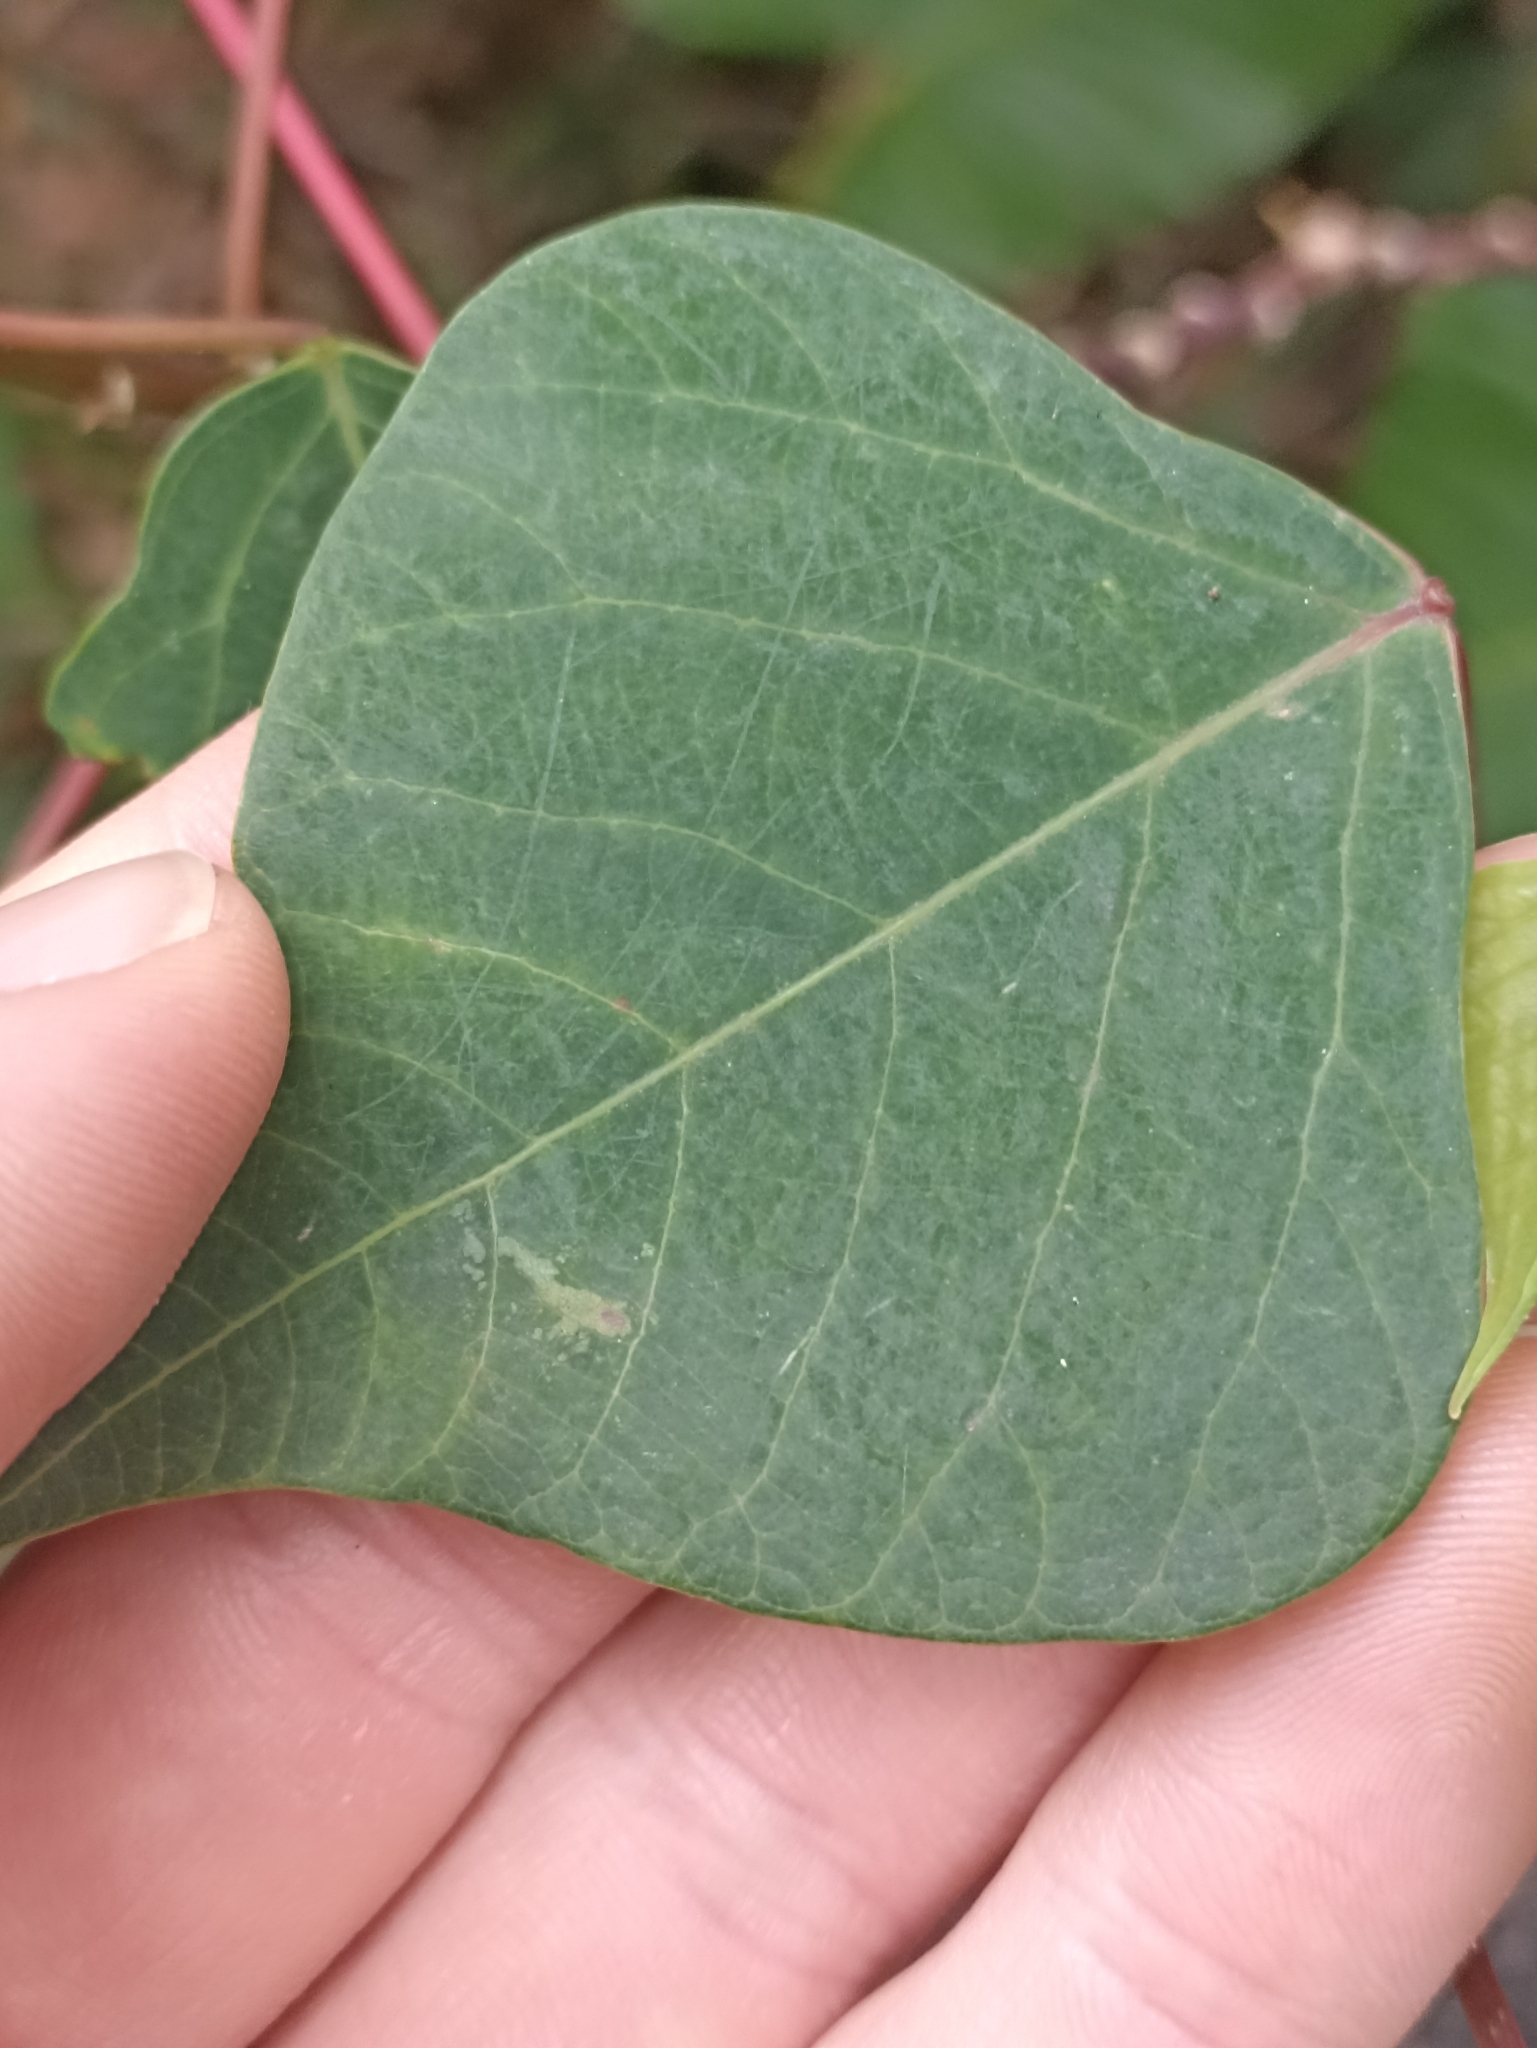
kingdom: Plantae
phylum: Tracheophyta
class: Magnoliopsida
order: Malpighiales
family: Euphorbiaceae
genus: Homalanthus
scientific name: Homalanthus populifolius
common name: Queensland poplar
